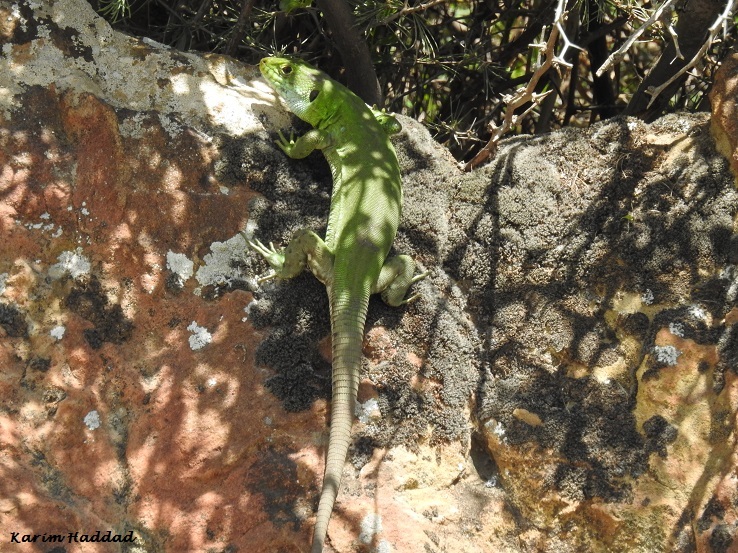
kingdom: Animalia
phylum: Chordata
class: Squamata
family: Lacertidae
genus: Timon
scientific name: Timon pater
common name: North african ocellated lizard
